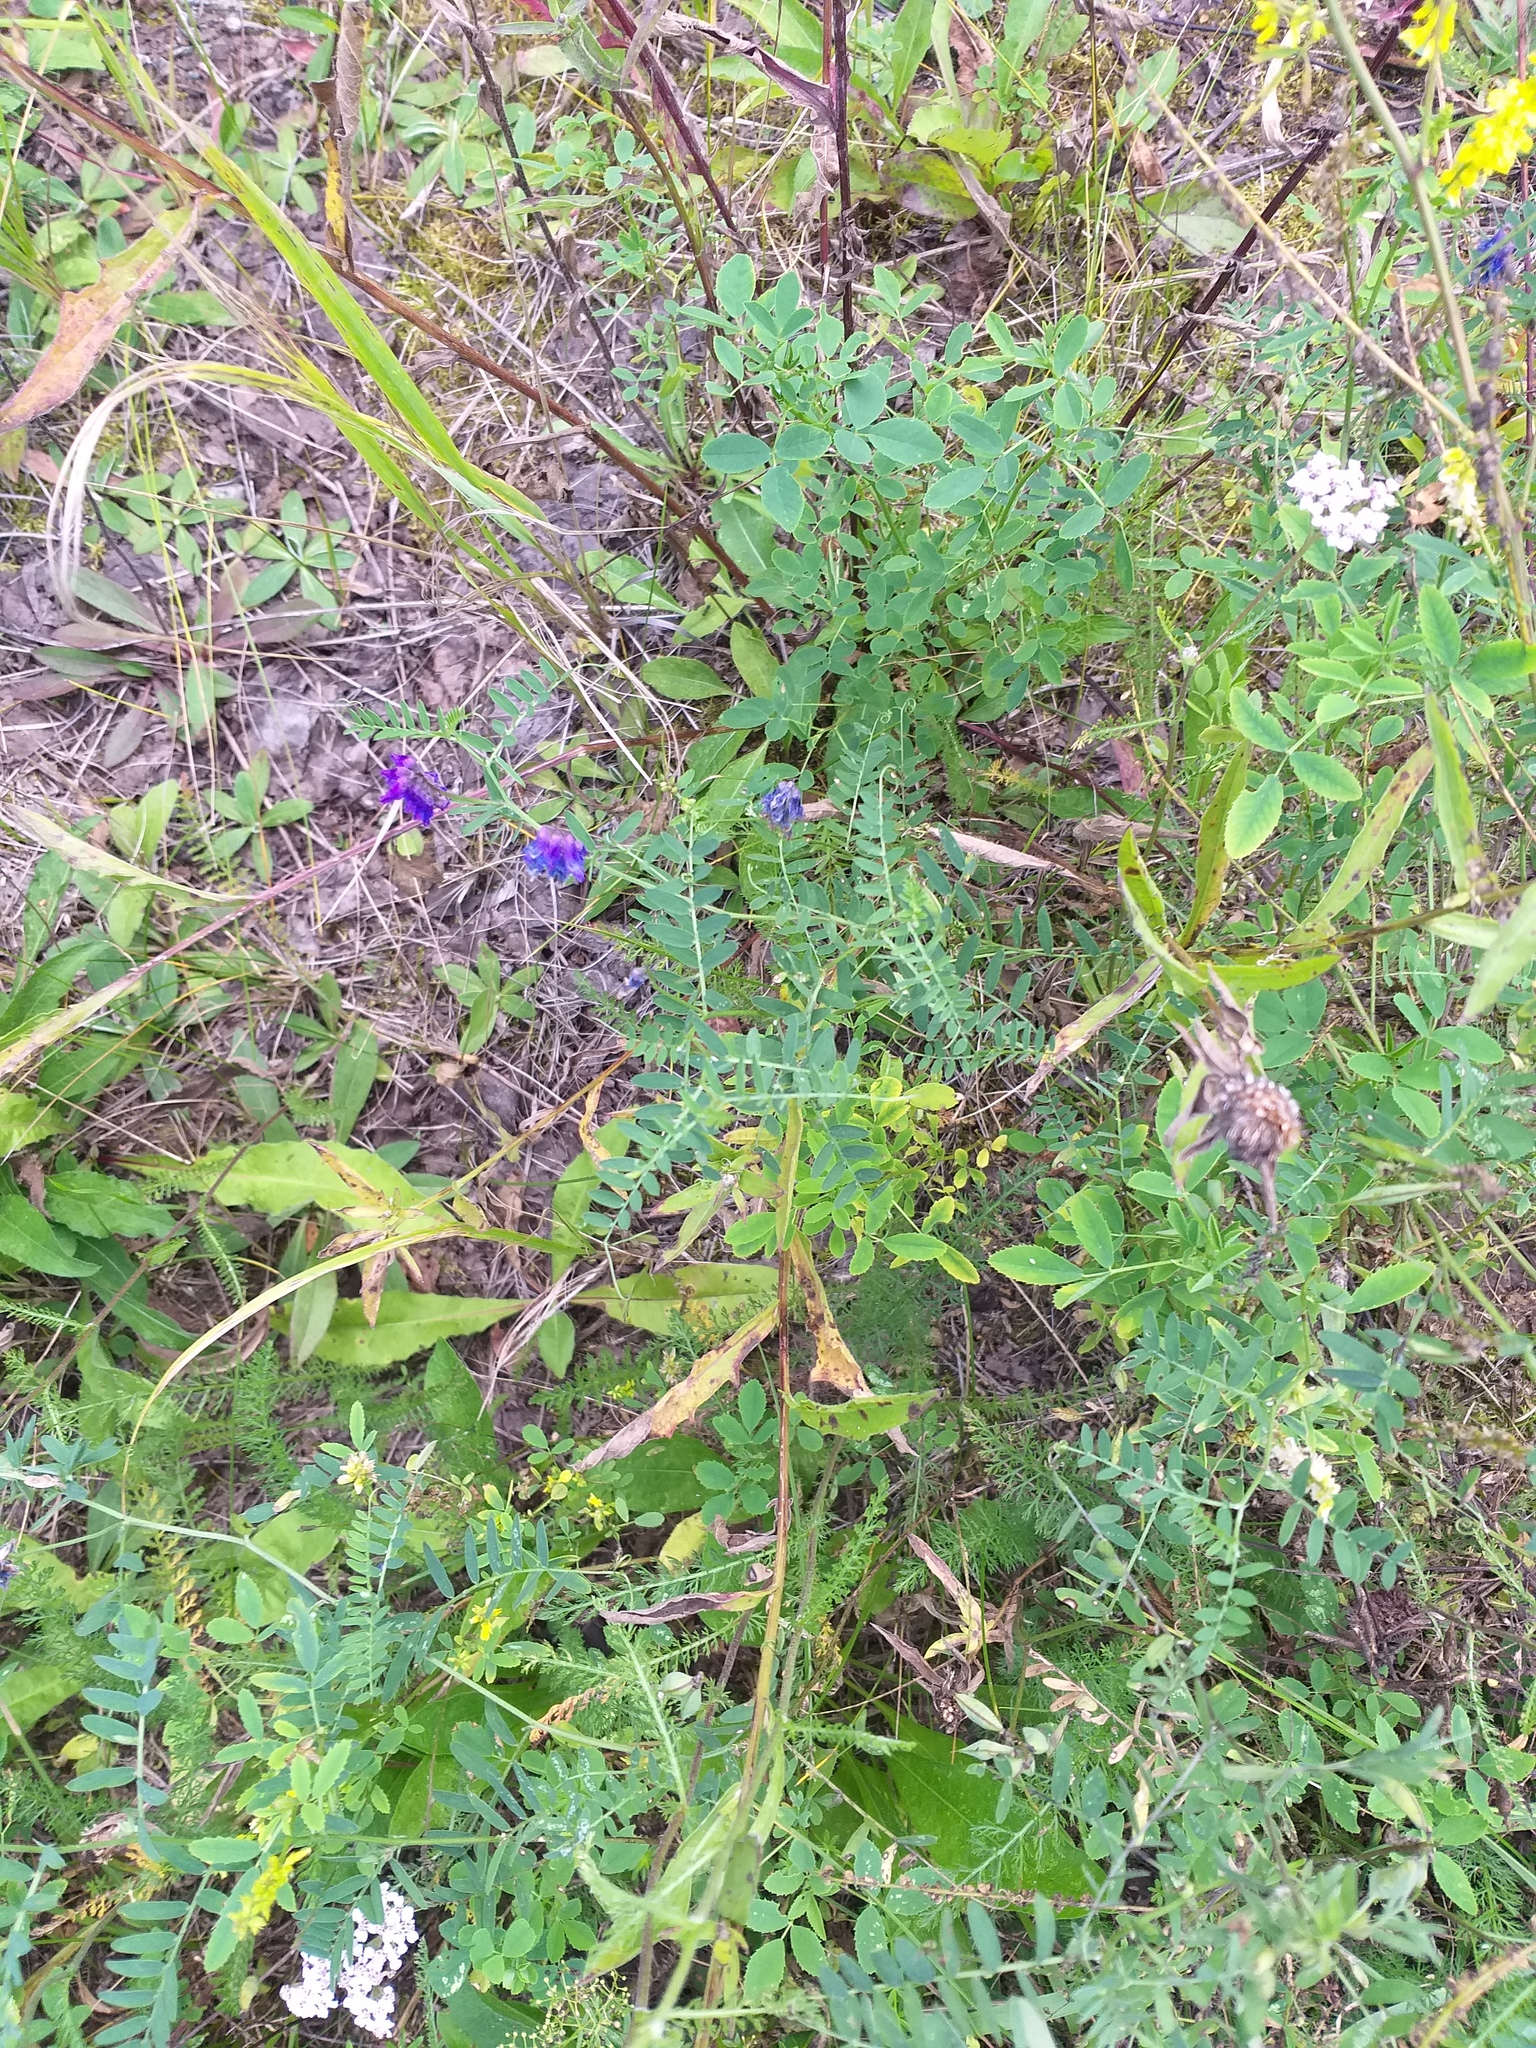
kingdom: Plantae
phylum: Tracheophyta
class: Magnoliopsida
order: Fabales
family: Fabaceae
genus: Vicia
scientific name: Vicia cracca
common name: Bird vetch
